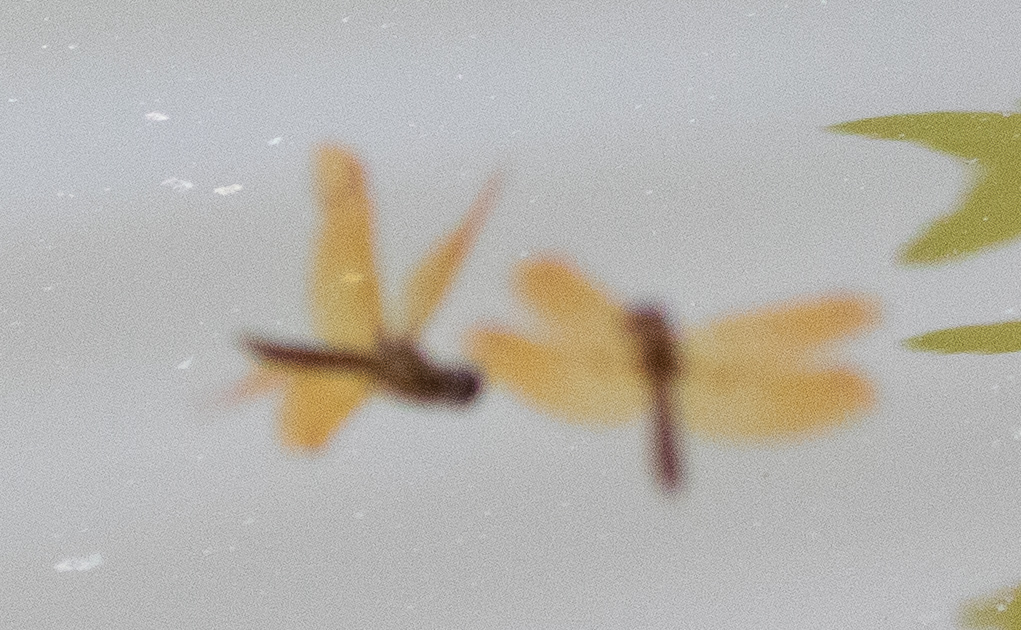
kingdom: Animalia
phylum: Arthropoda
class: Insecta
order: Odonata
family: Libellulidae
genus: Perithemis
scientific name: Perithemis tenera
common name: Eastern amberwing
